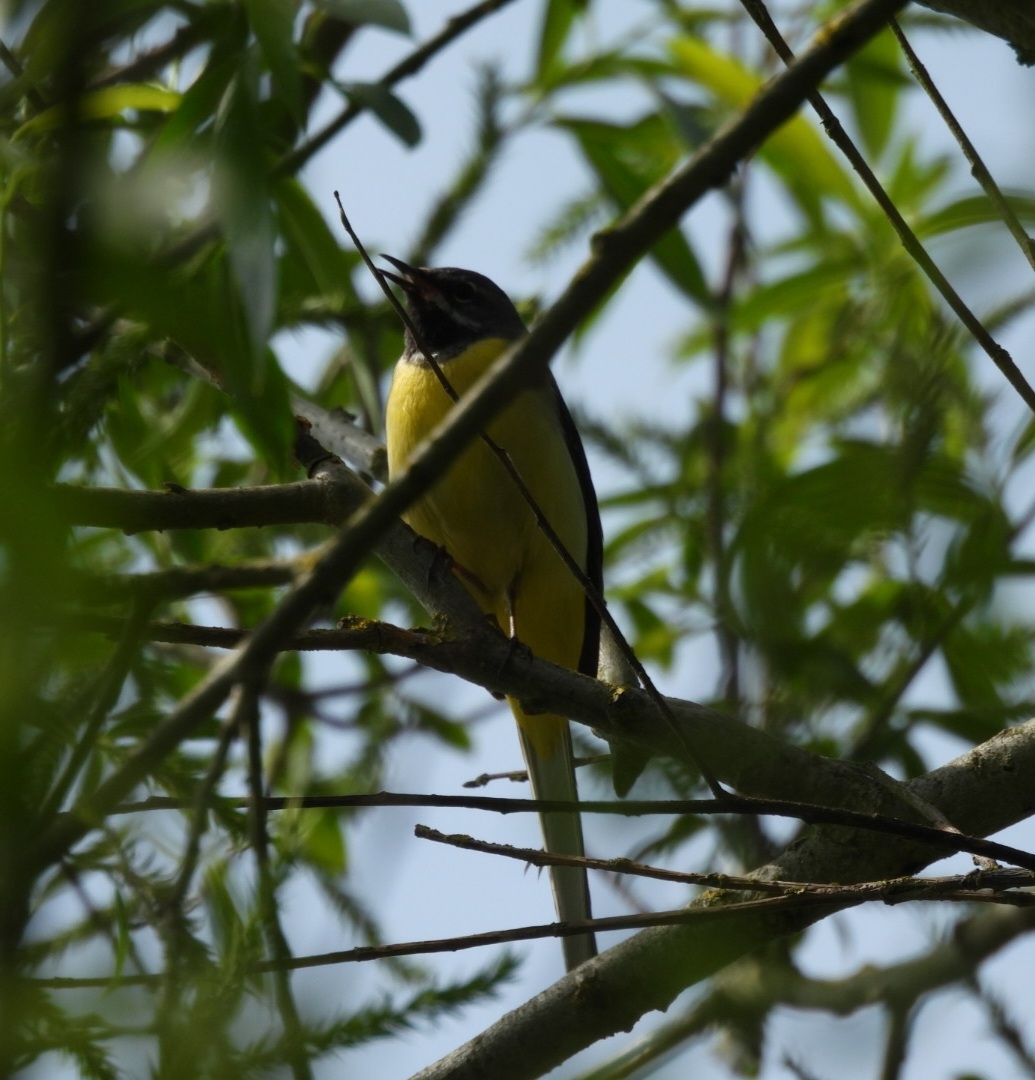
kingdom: Animalia
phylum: Chordata
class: Aves
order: Passeriformes
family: Motacillidae
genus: Motacilla
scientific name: Motacilla cinerea
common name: Grey wagtail
